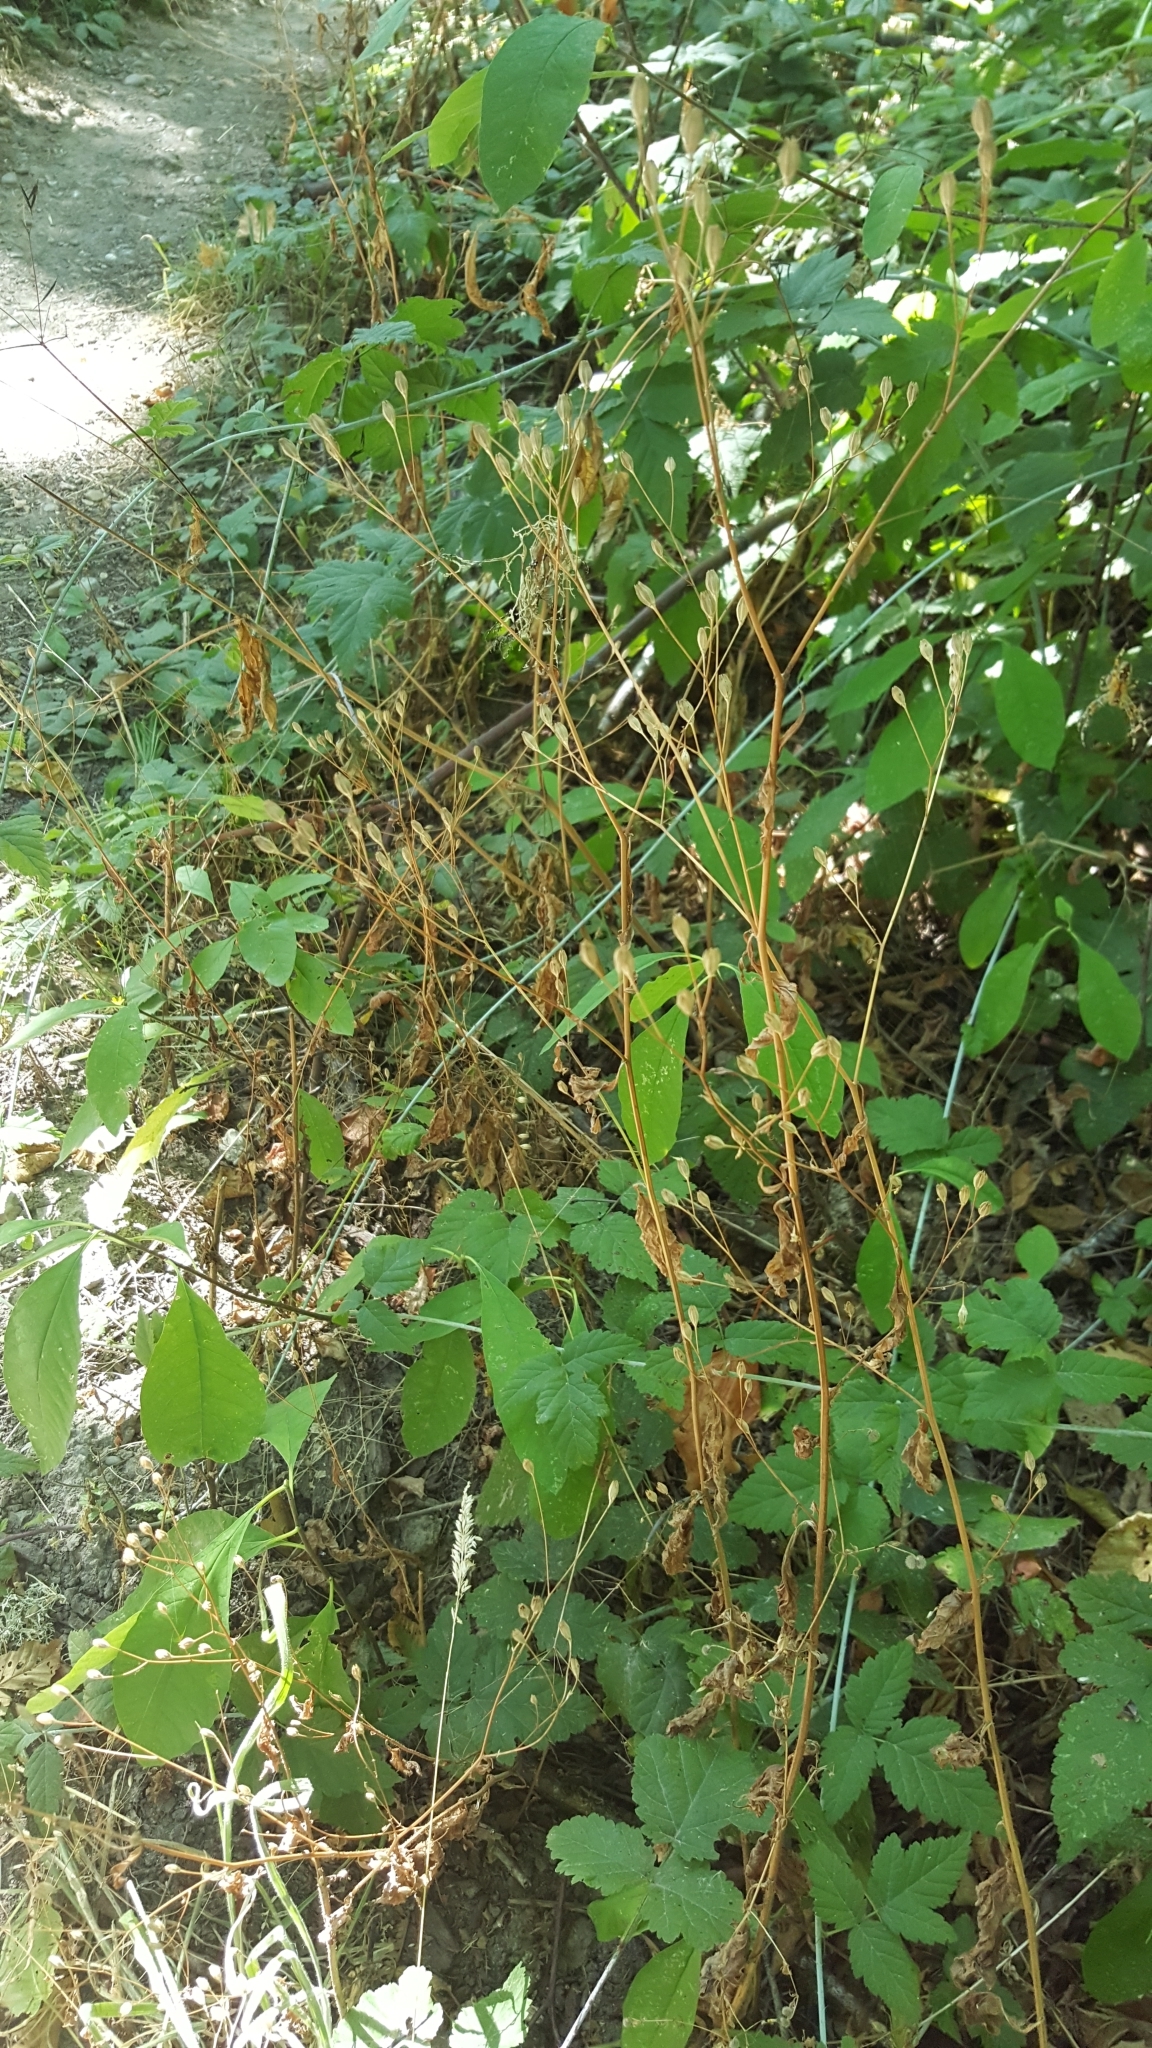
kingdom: Plantae
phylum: Tracheophyta
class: Magnoliopsida
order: Asterales
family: Asteraceae
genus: Lapsana
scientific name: Lapsana communis
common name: Nipplewort
